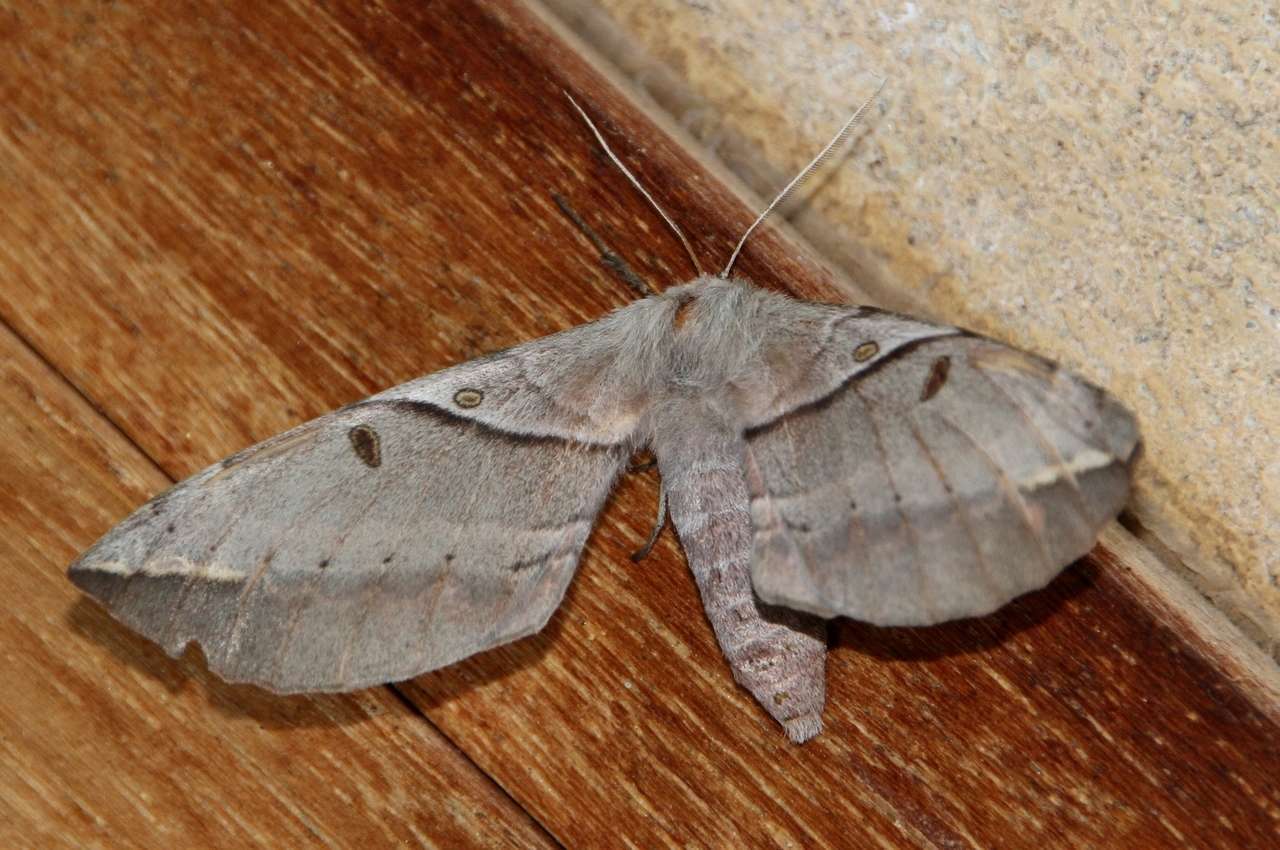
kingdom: Animalia
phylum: Arthropoda
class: Insecta
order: Lepidoptera
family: Anthelidae
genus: Chelepteryx
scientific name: Chelepteryx chalepteryx
